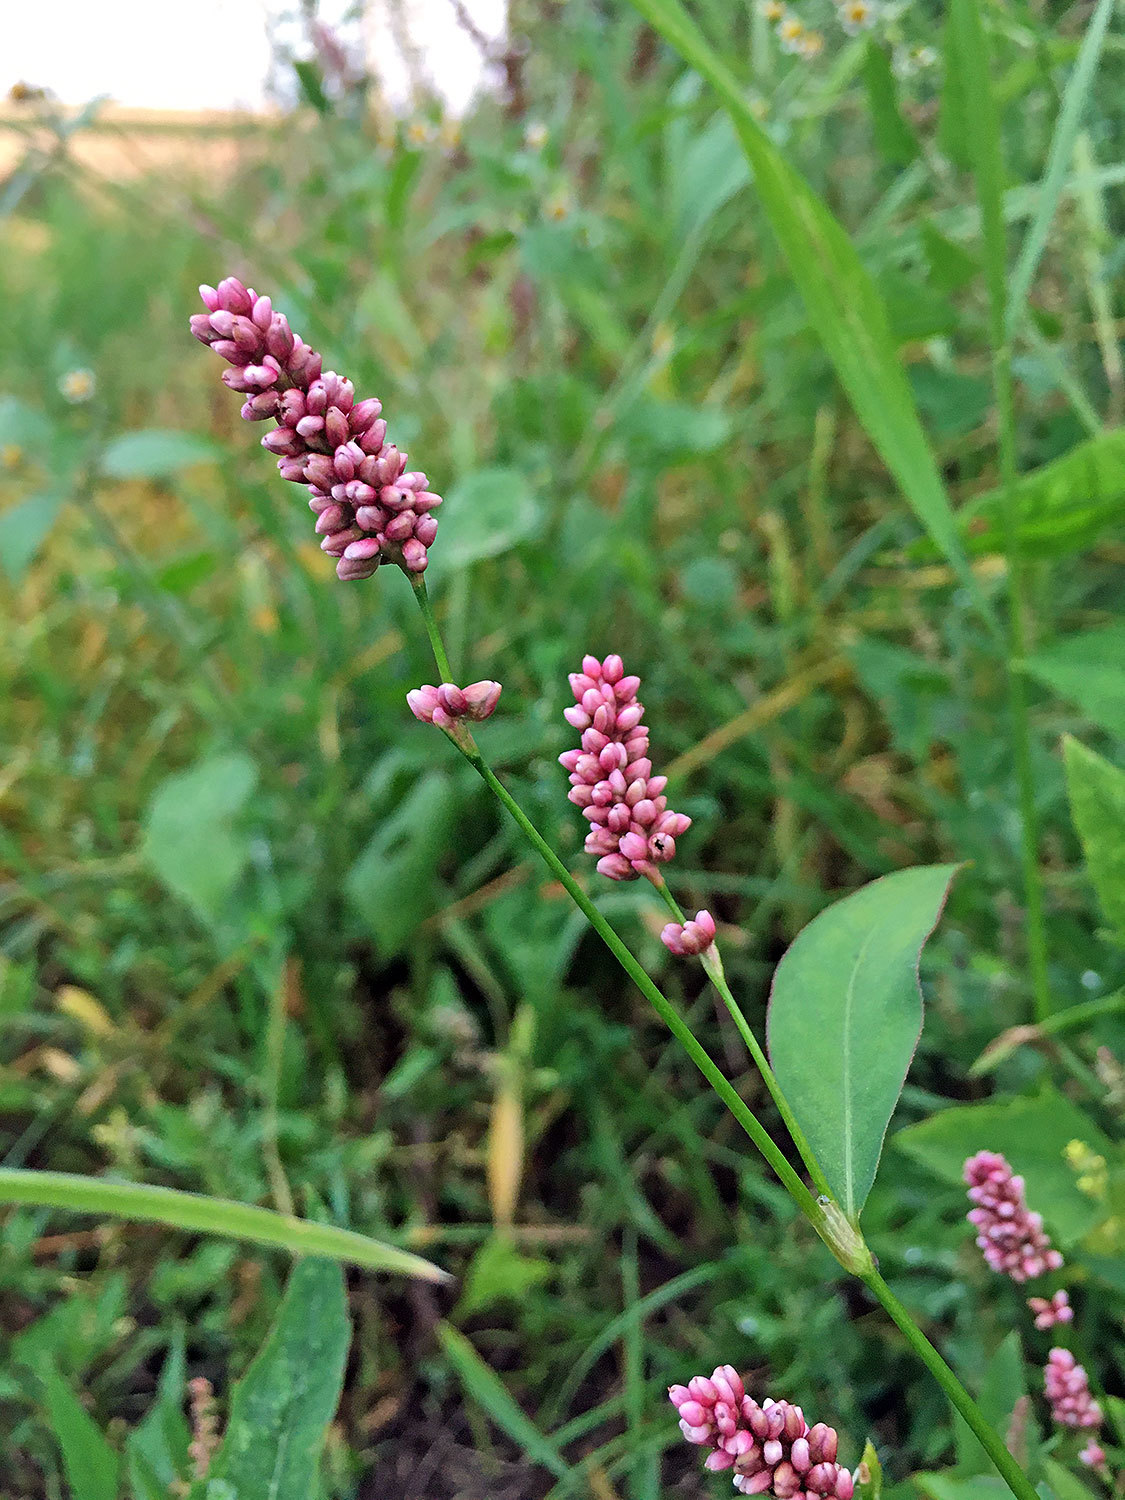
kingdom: Plantae
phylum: Tracheophyta
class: Magnoliopsida
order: Caryophyllales
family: Polygonaceae
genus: Persicaria
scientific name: Persicaria maculosa
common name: Redshank
